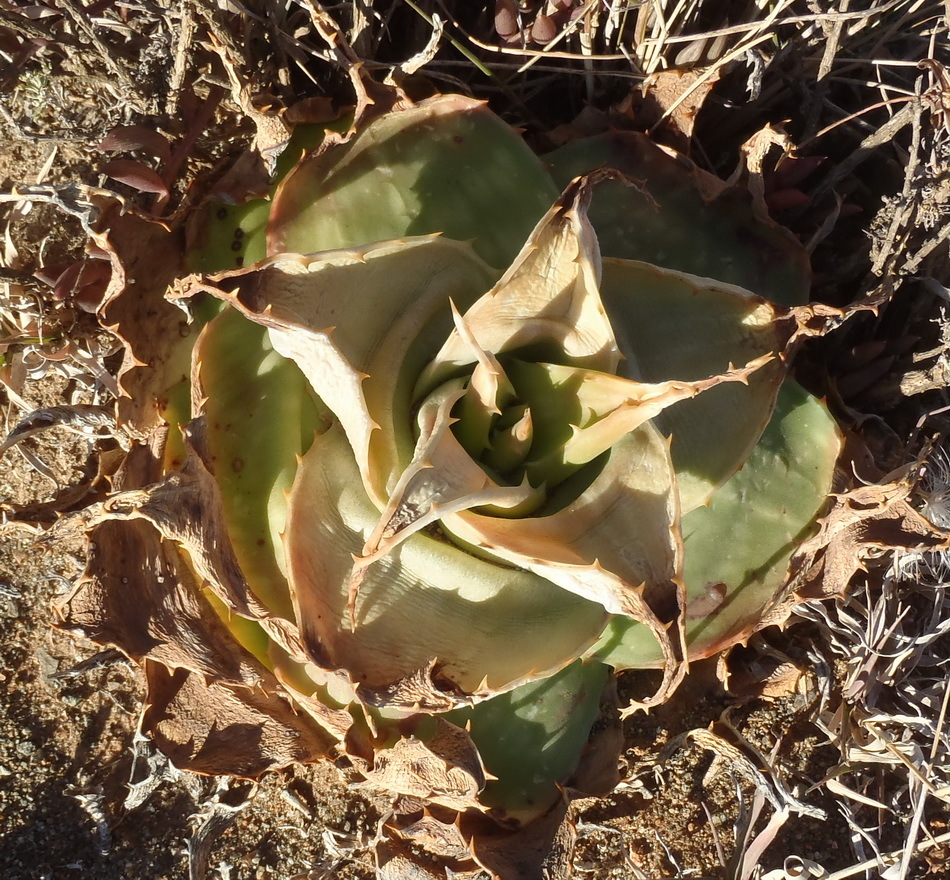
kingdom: Plantae
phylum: Tracheophyta
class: Liliopsida
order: Asparagales
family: Asphodelaceae
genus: Aloe
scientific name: Aloe maculata
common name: Broadleaf aloe
